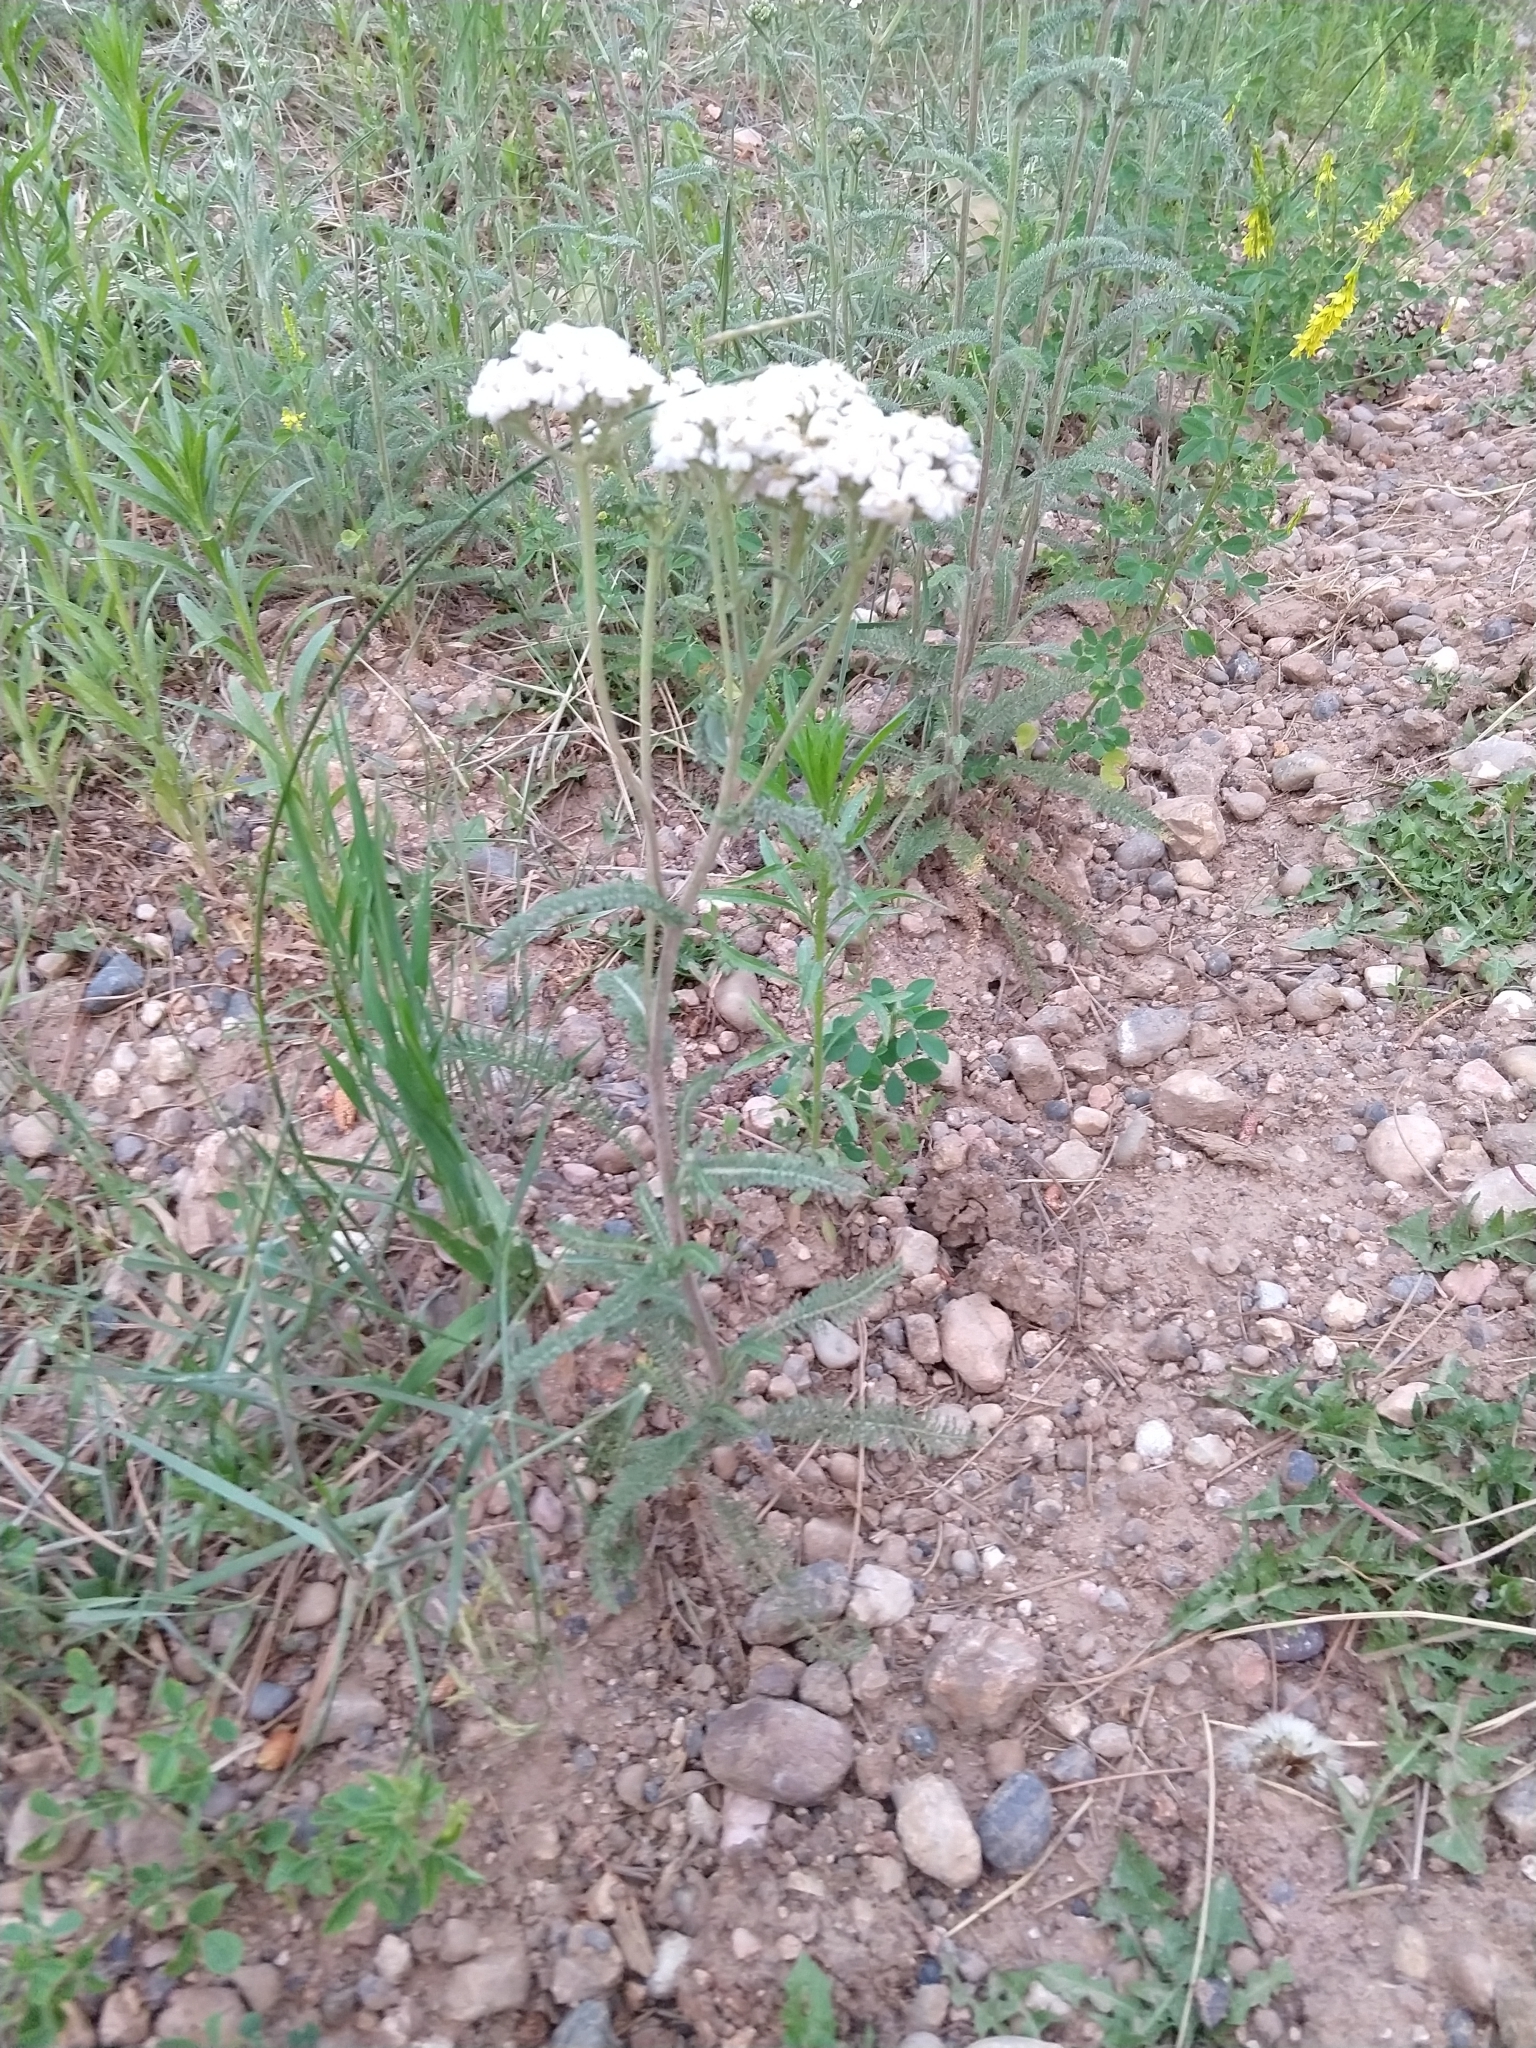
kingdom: Plantae
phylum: Tracheophyta
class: Magnoliopsida
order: Asterales
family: Asteraceae
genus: Achillea
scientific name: Achillea millefolium
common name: Yarrow
